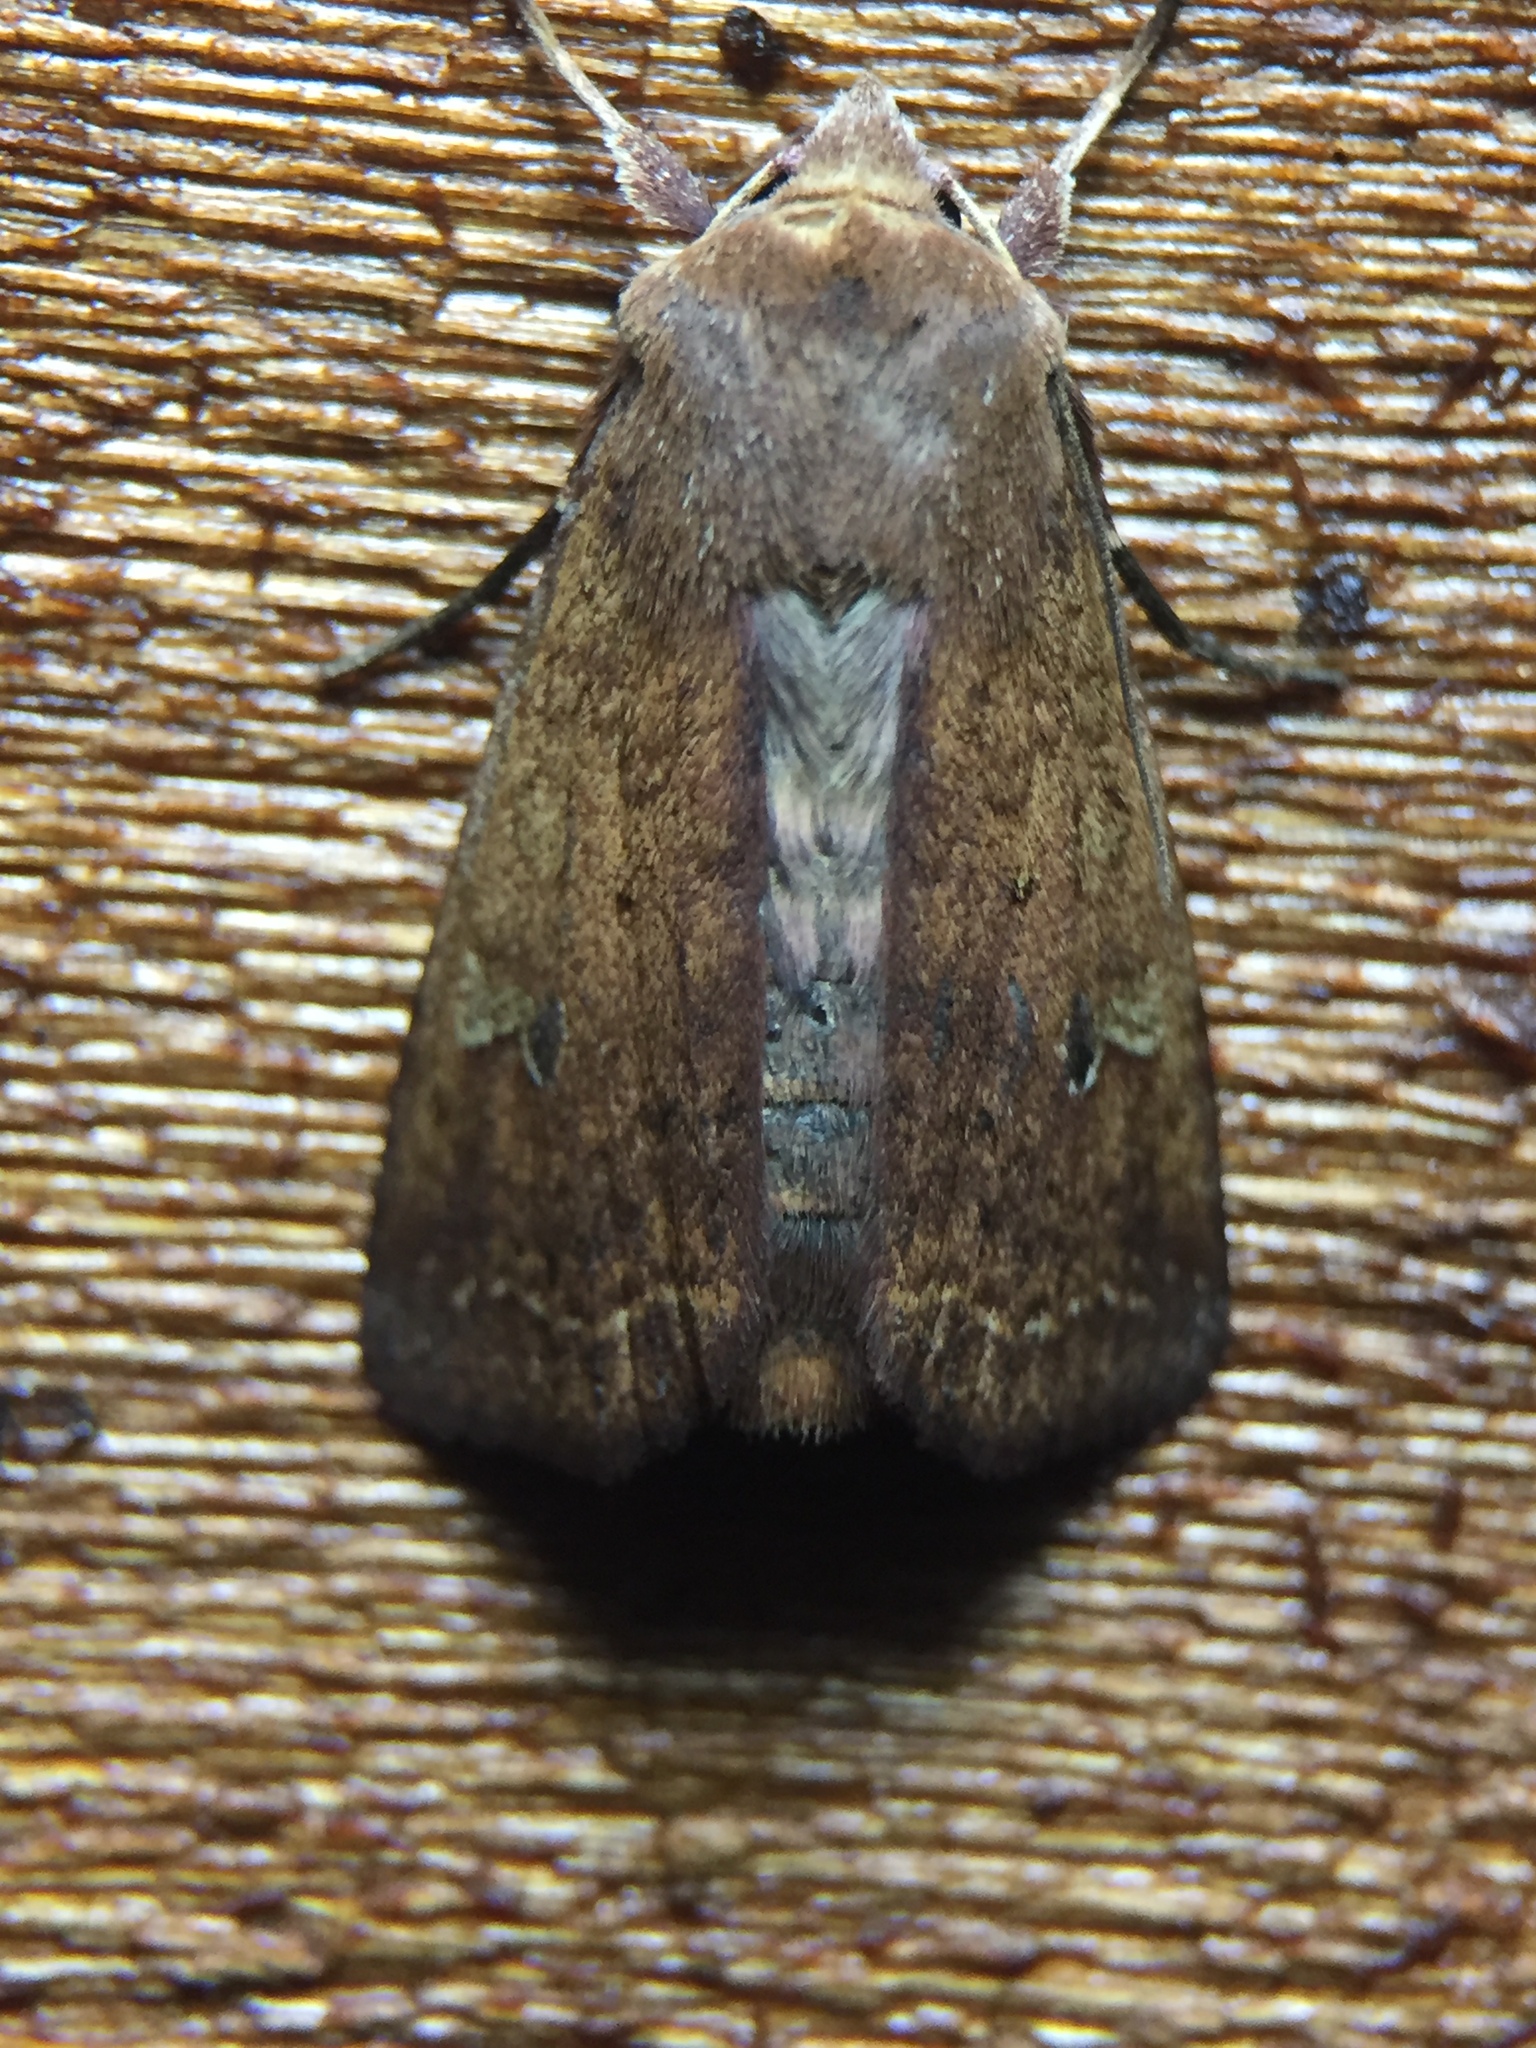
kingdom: Animalia
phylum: Arthropoda
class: Insecta
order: Lepidoptera
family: Noctuidae
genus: Diarsia
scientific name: Diarsia intermixta
